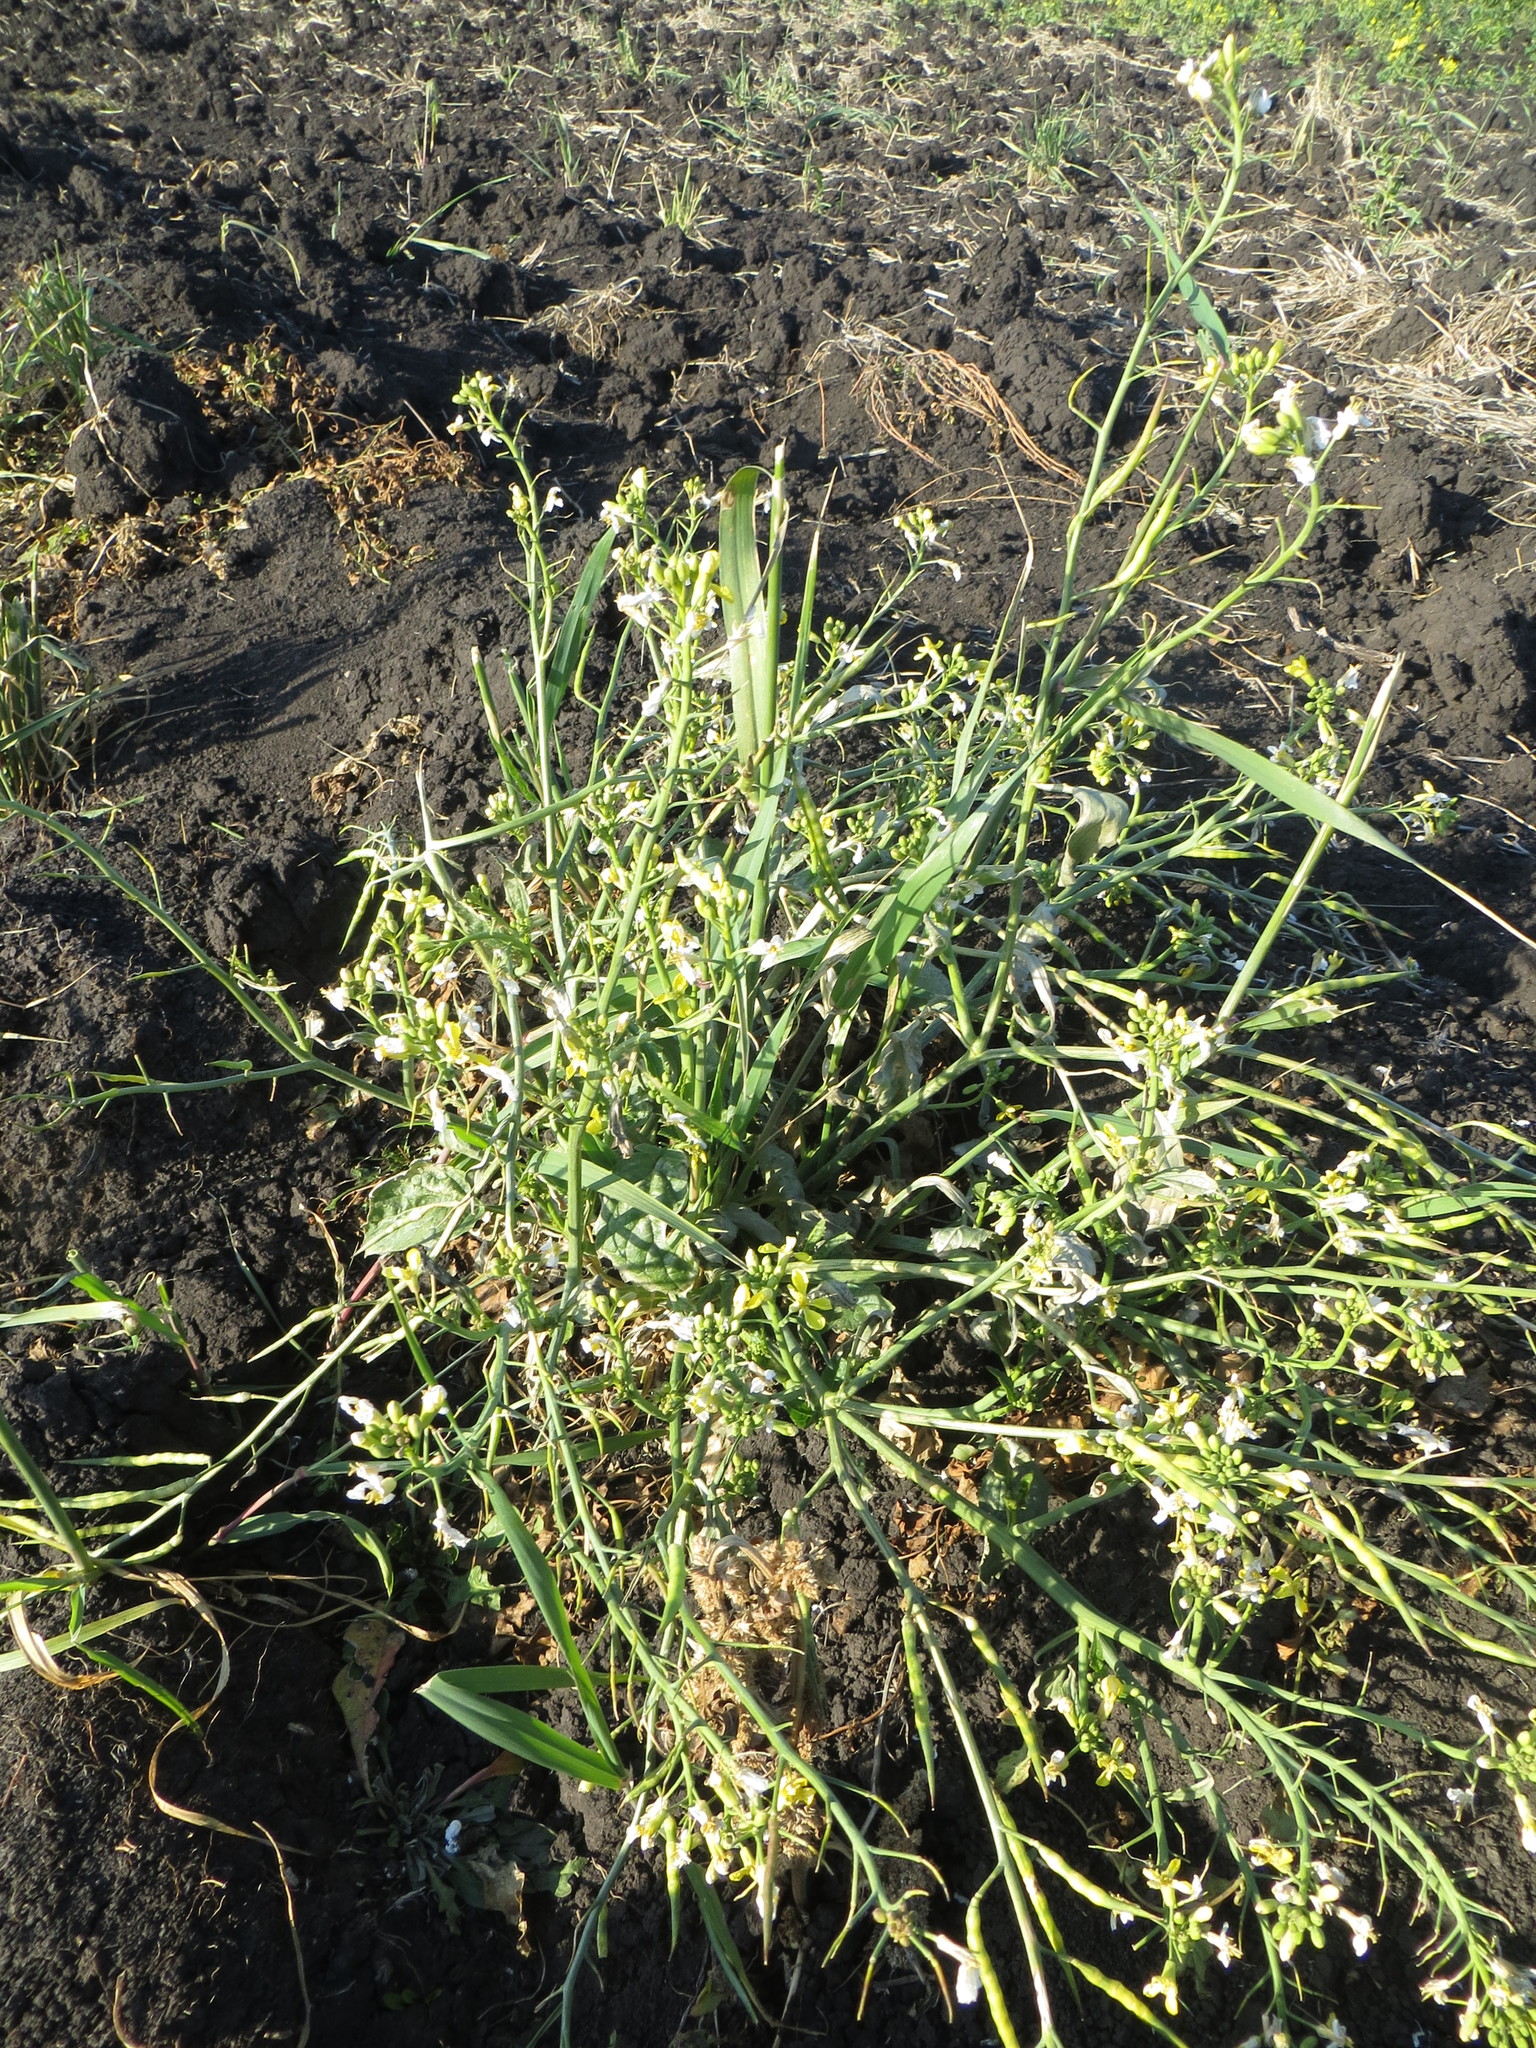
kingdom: Plantae
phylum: Tracheophyta
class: Magnoliopsida
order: Brassicales
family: Brassicaceae
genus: Raphanus
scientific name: Raphanus raphanistrum
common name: Wild radish
